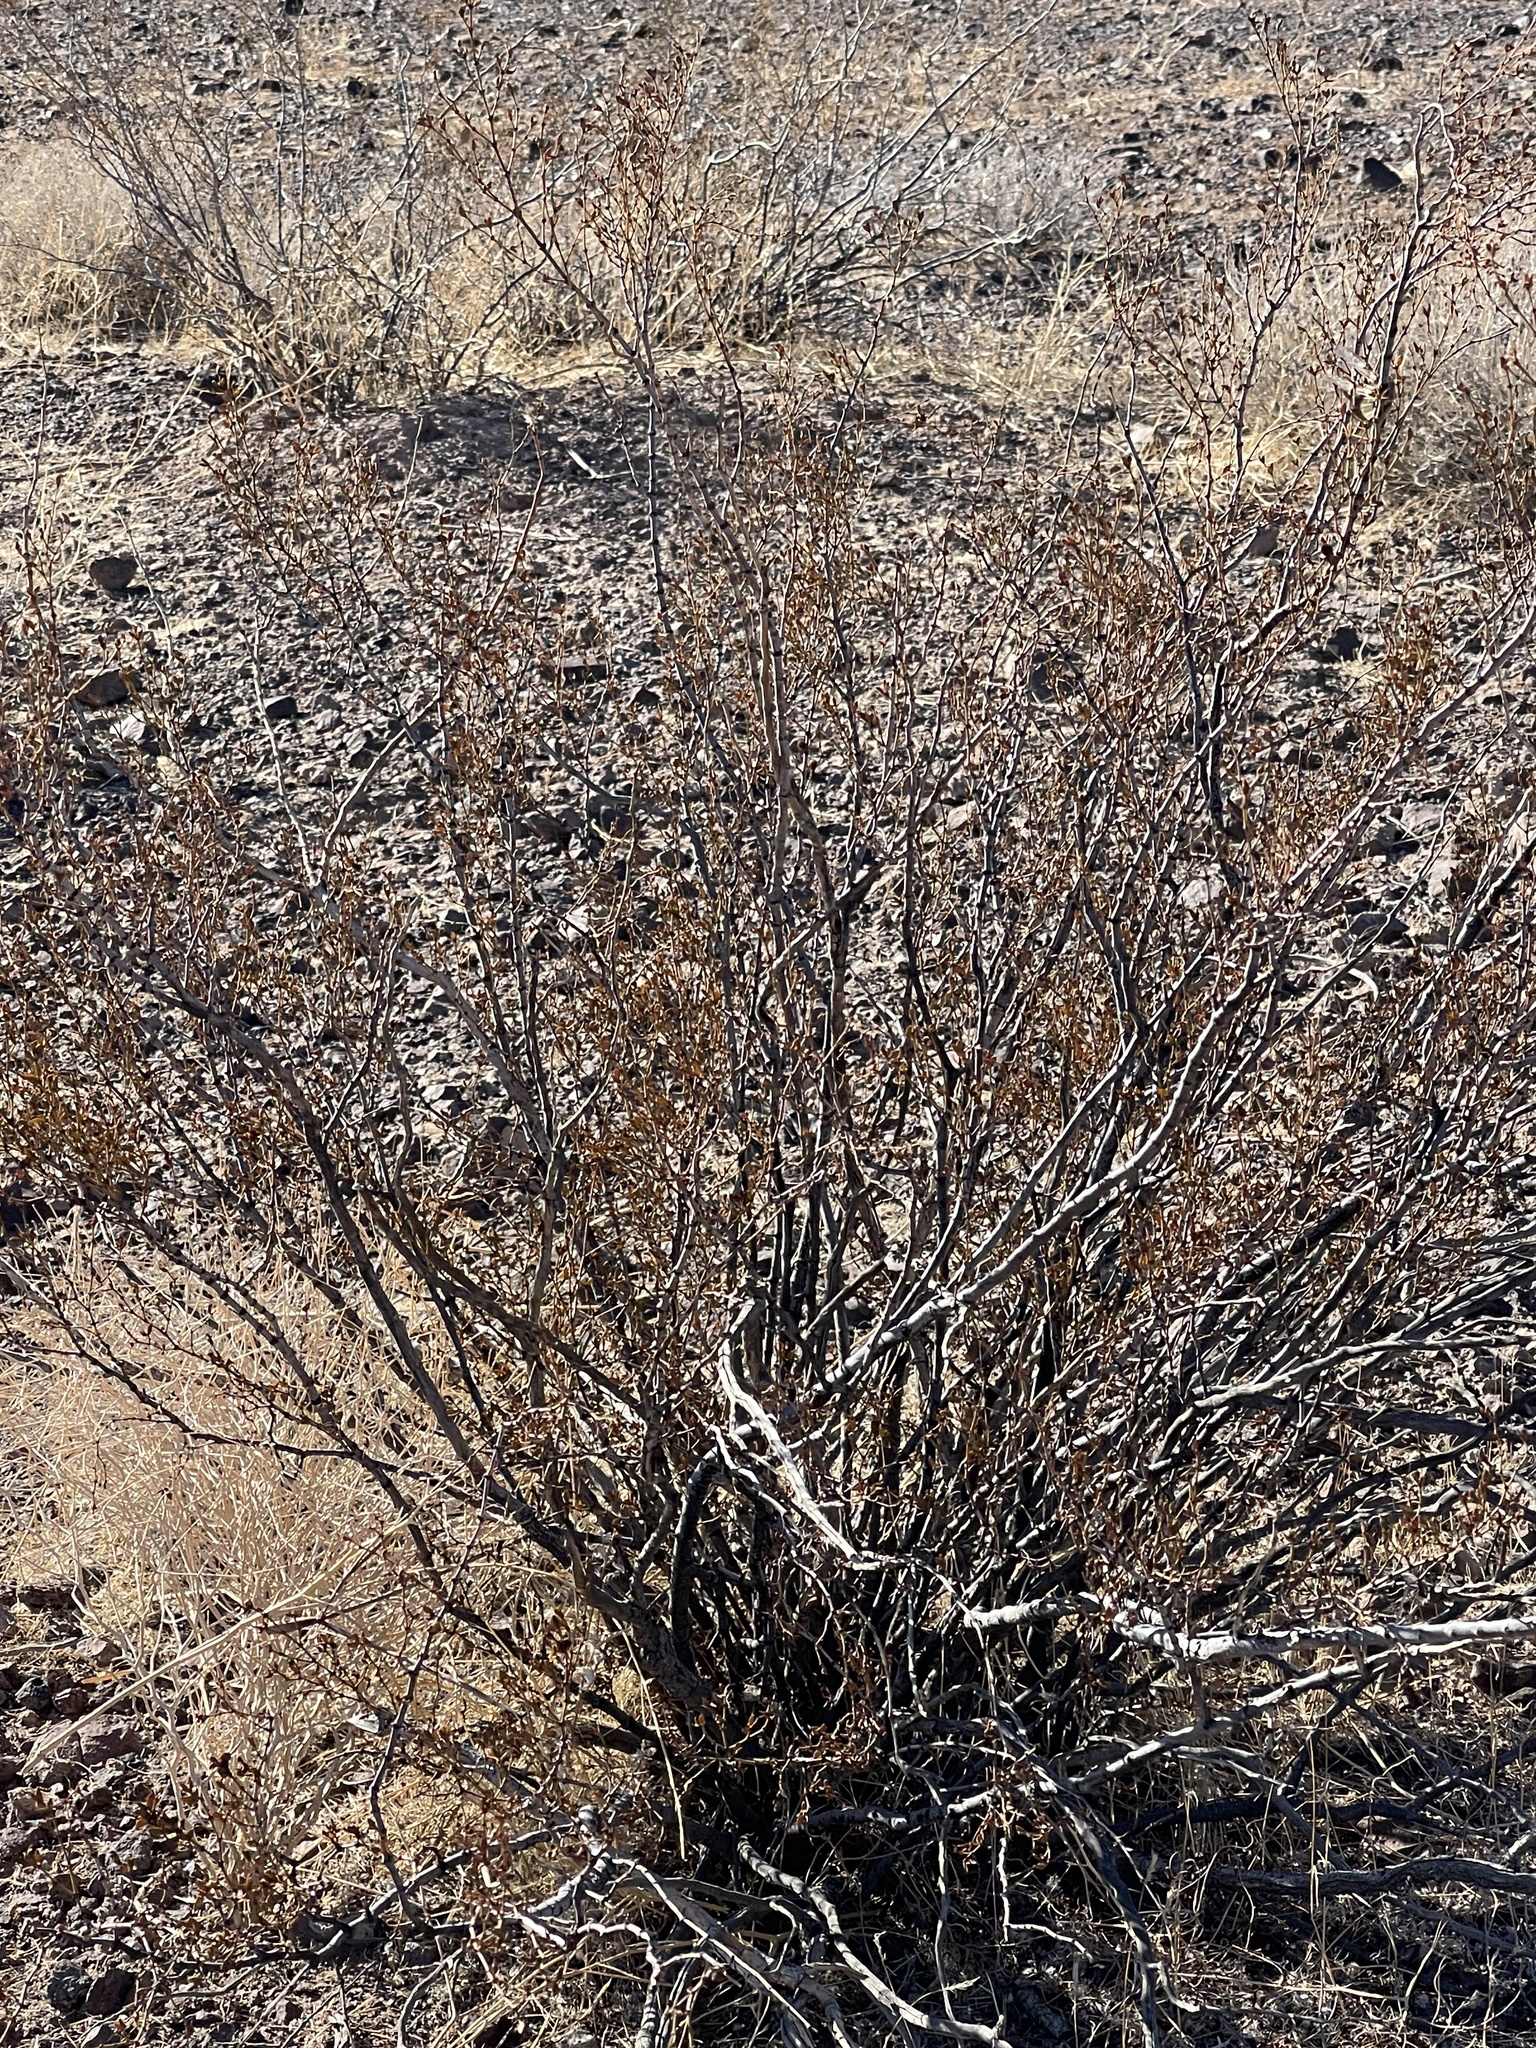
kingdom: Plantae
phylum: Tracheophyta
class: Magnoliopsida
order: Zygophyllales
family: Zygophyllaceae
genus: Larrea
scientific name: Larrea tridentata
